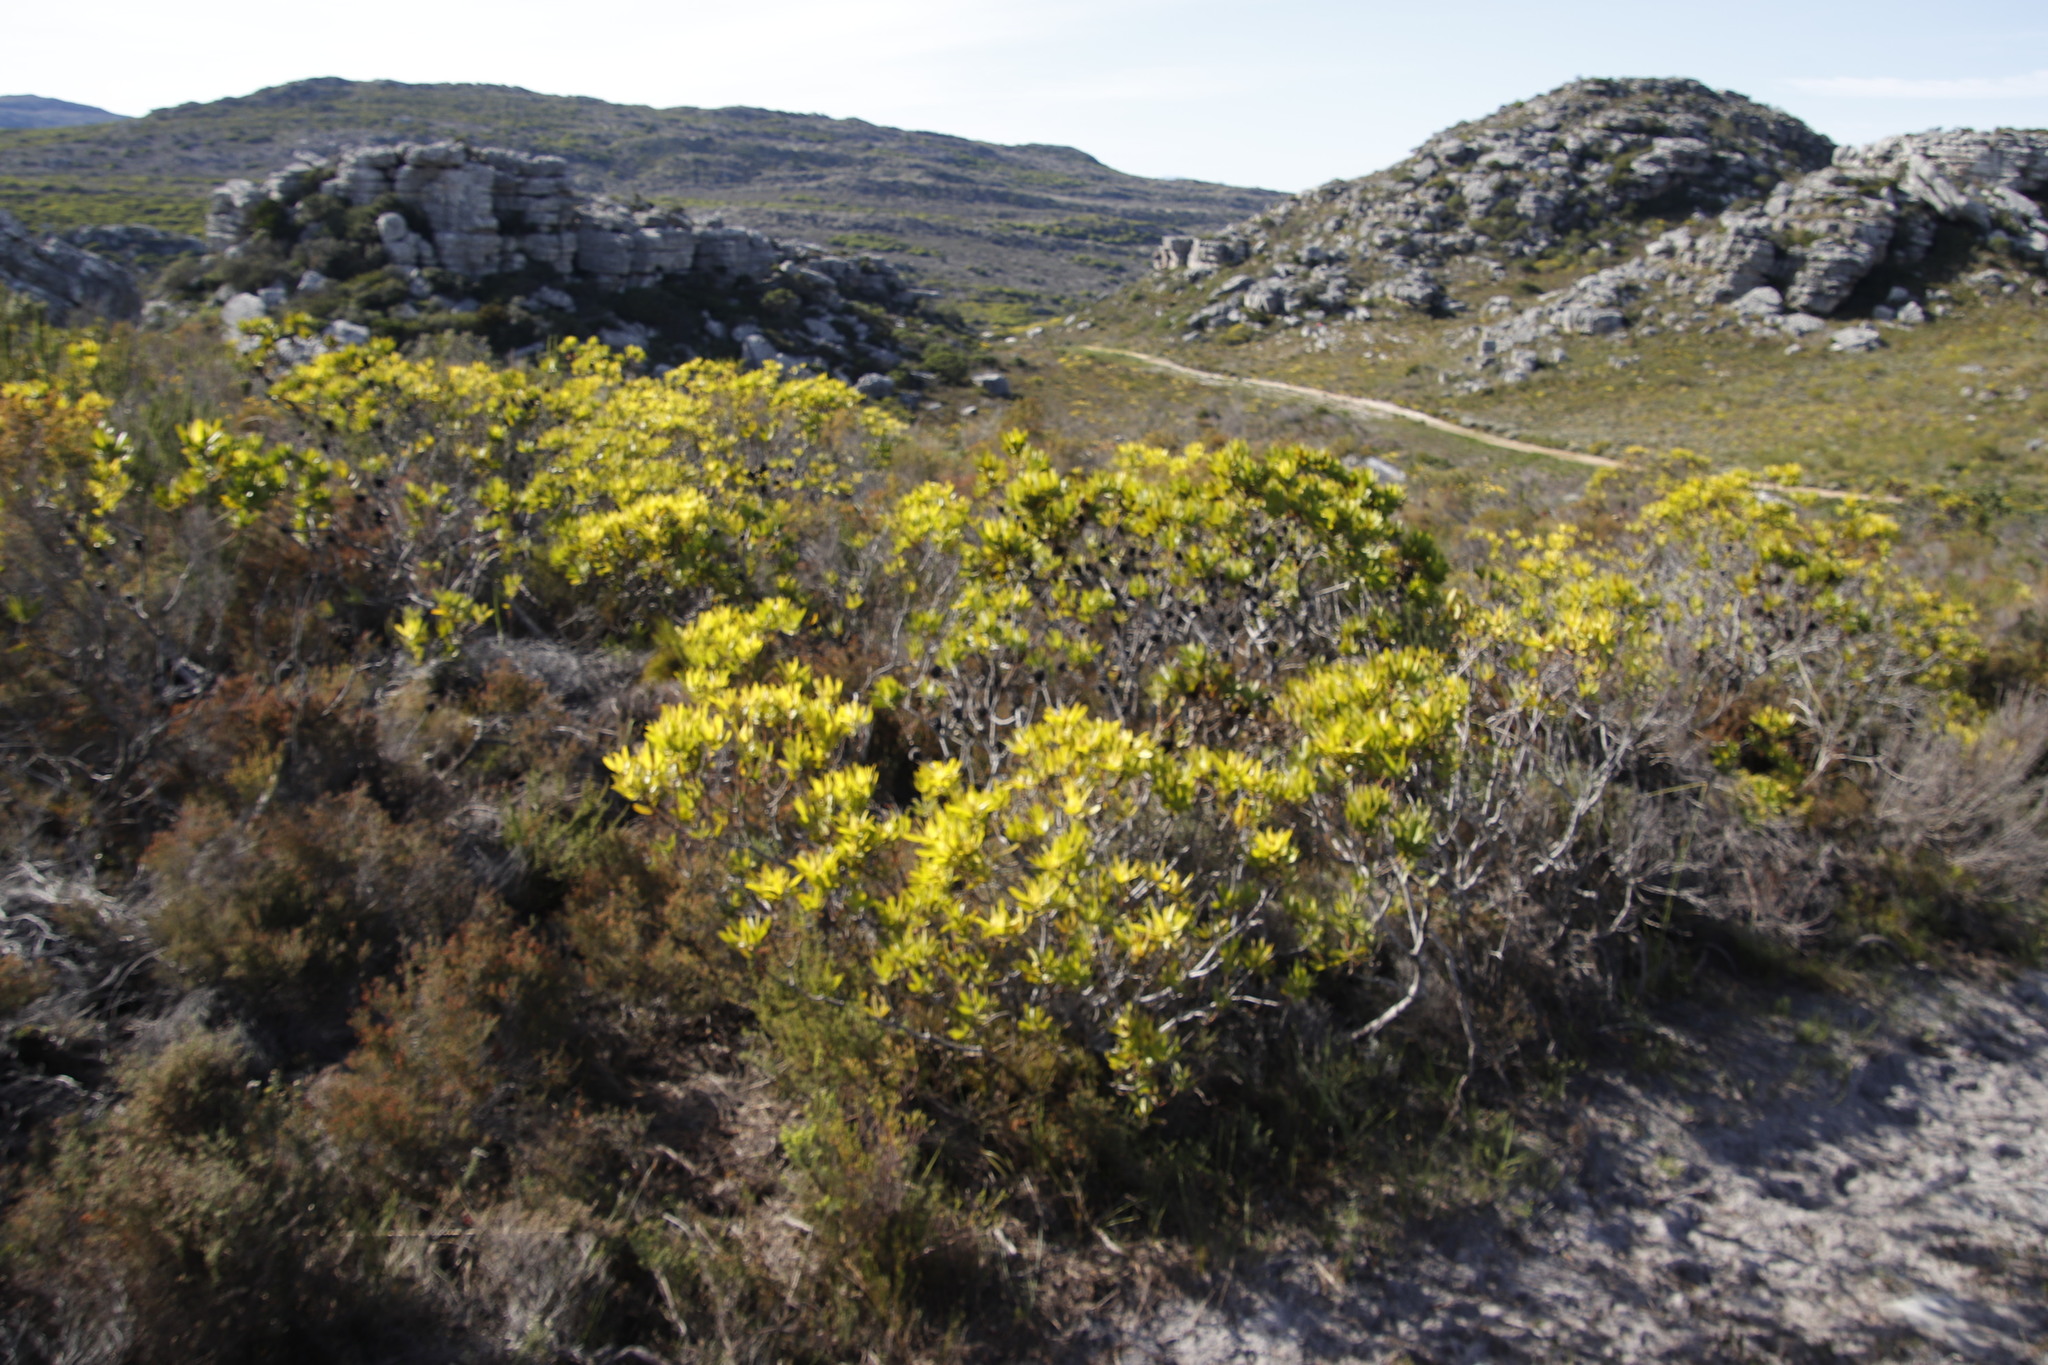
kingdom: Plantae
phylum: Tracheophyta
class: Magnoliopsida
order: Proteales
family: Proteaceae
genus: Leucadendron
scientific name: Leucadendron laureolum
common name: Golden sunshinebush
